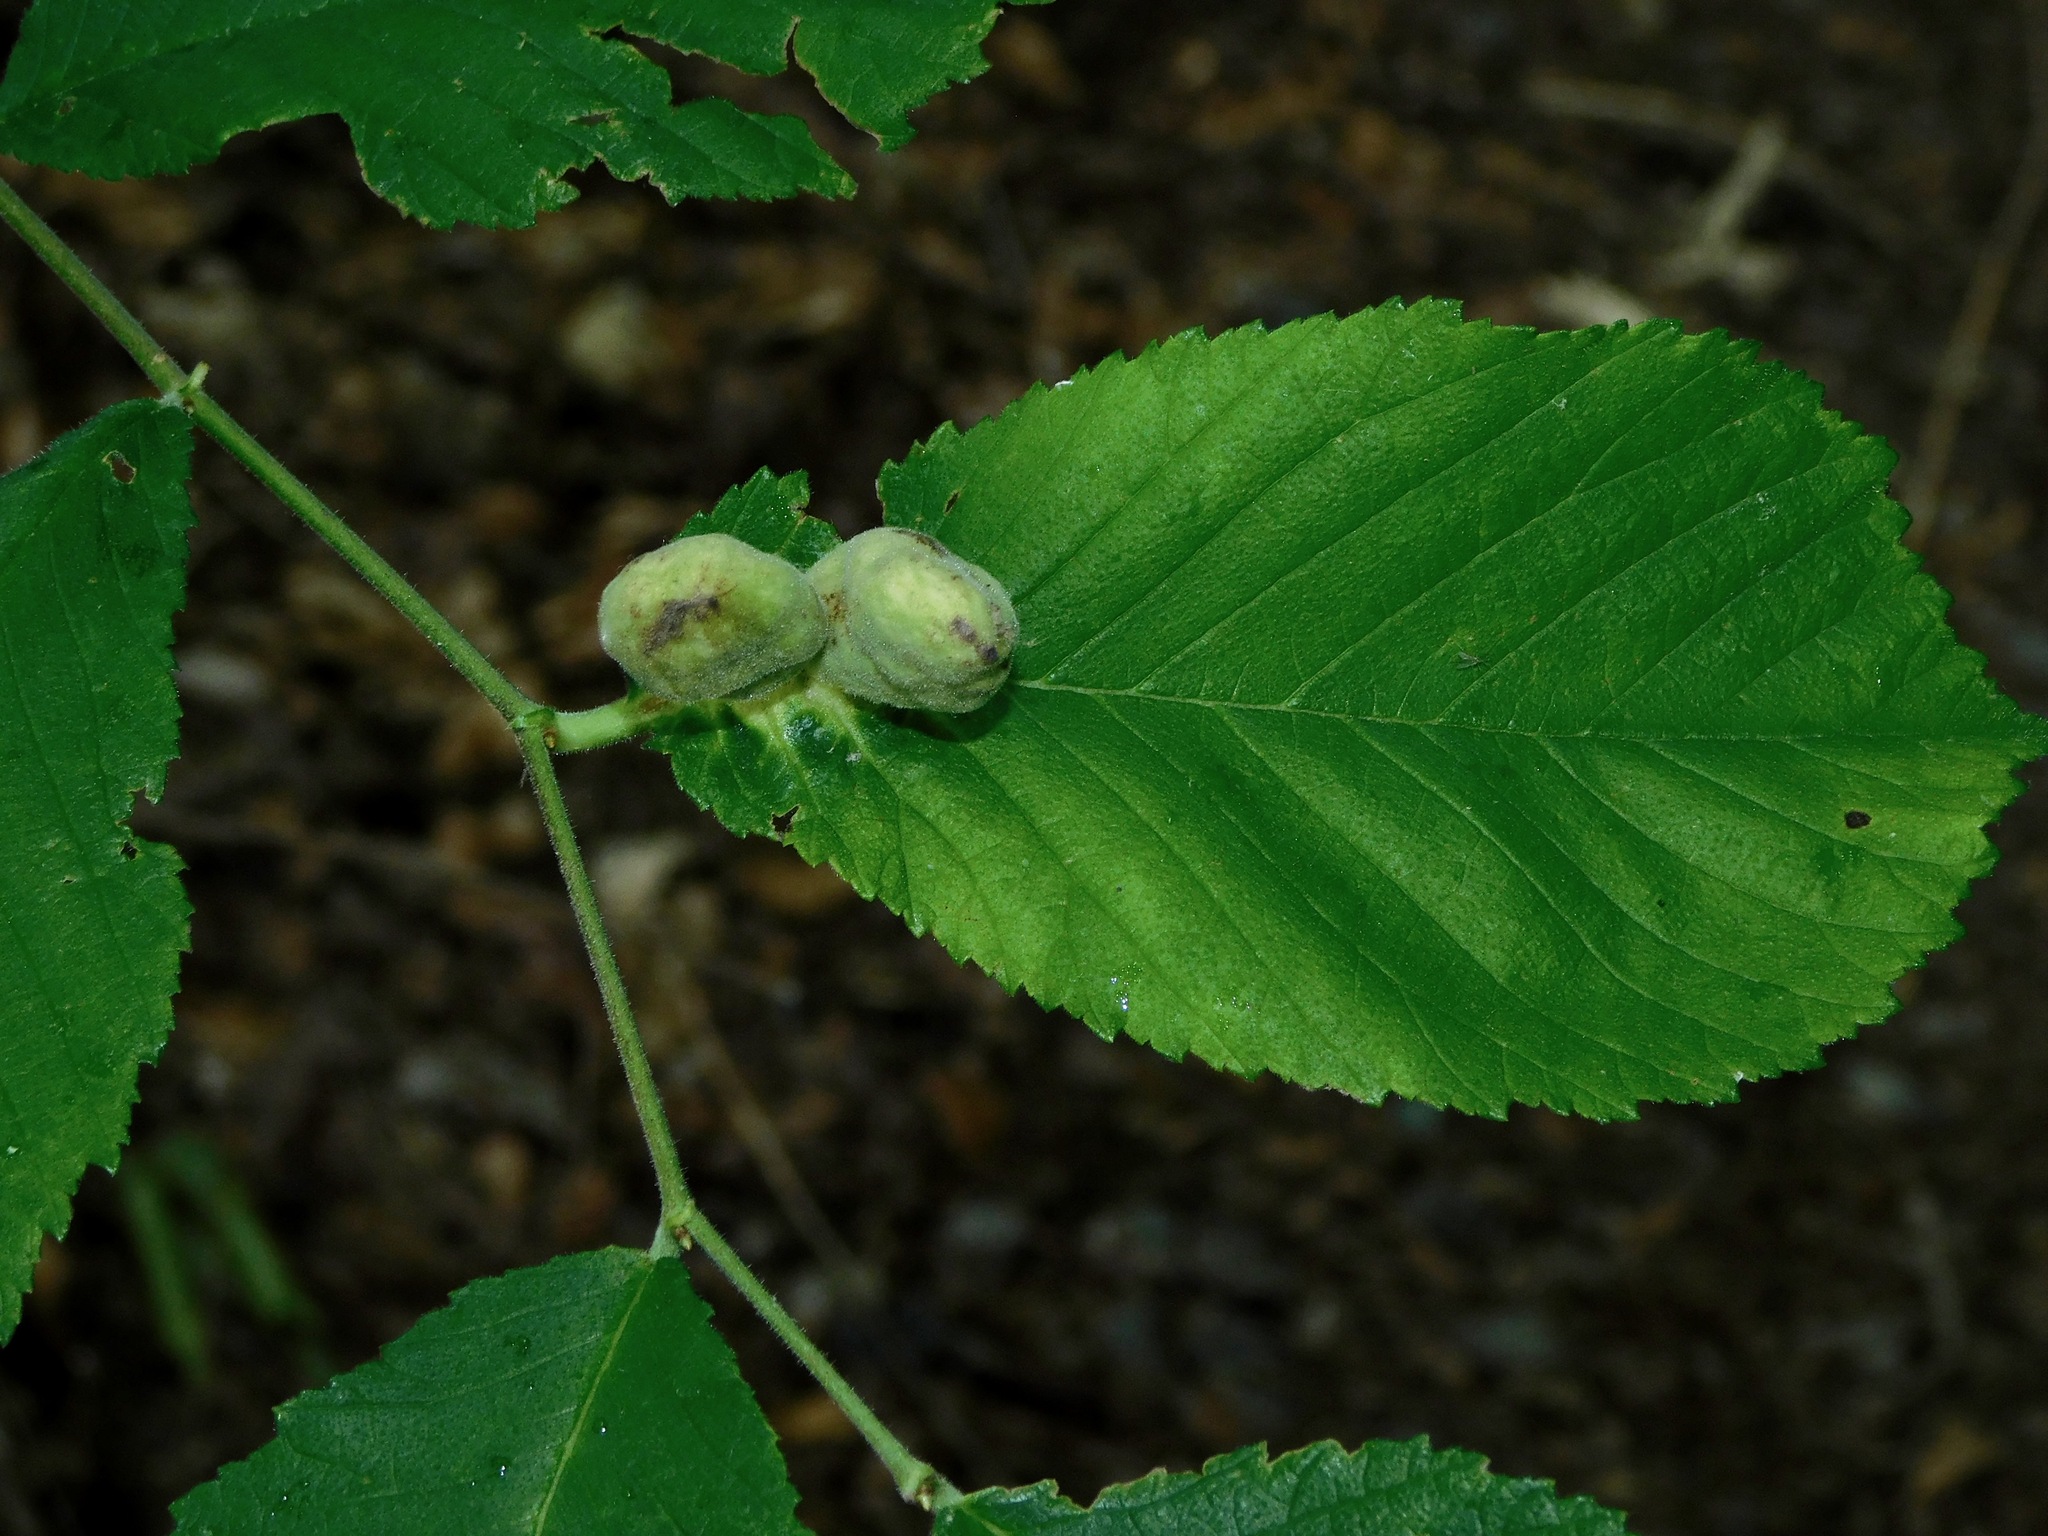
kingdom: Plantae
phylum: Tracheophyta
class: Magnoliopsida
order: Rosales
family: Ulmaceae
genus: Ulmus
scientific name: Ulmus rubra
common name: Slippery elm
